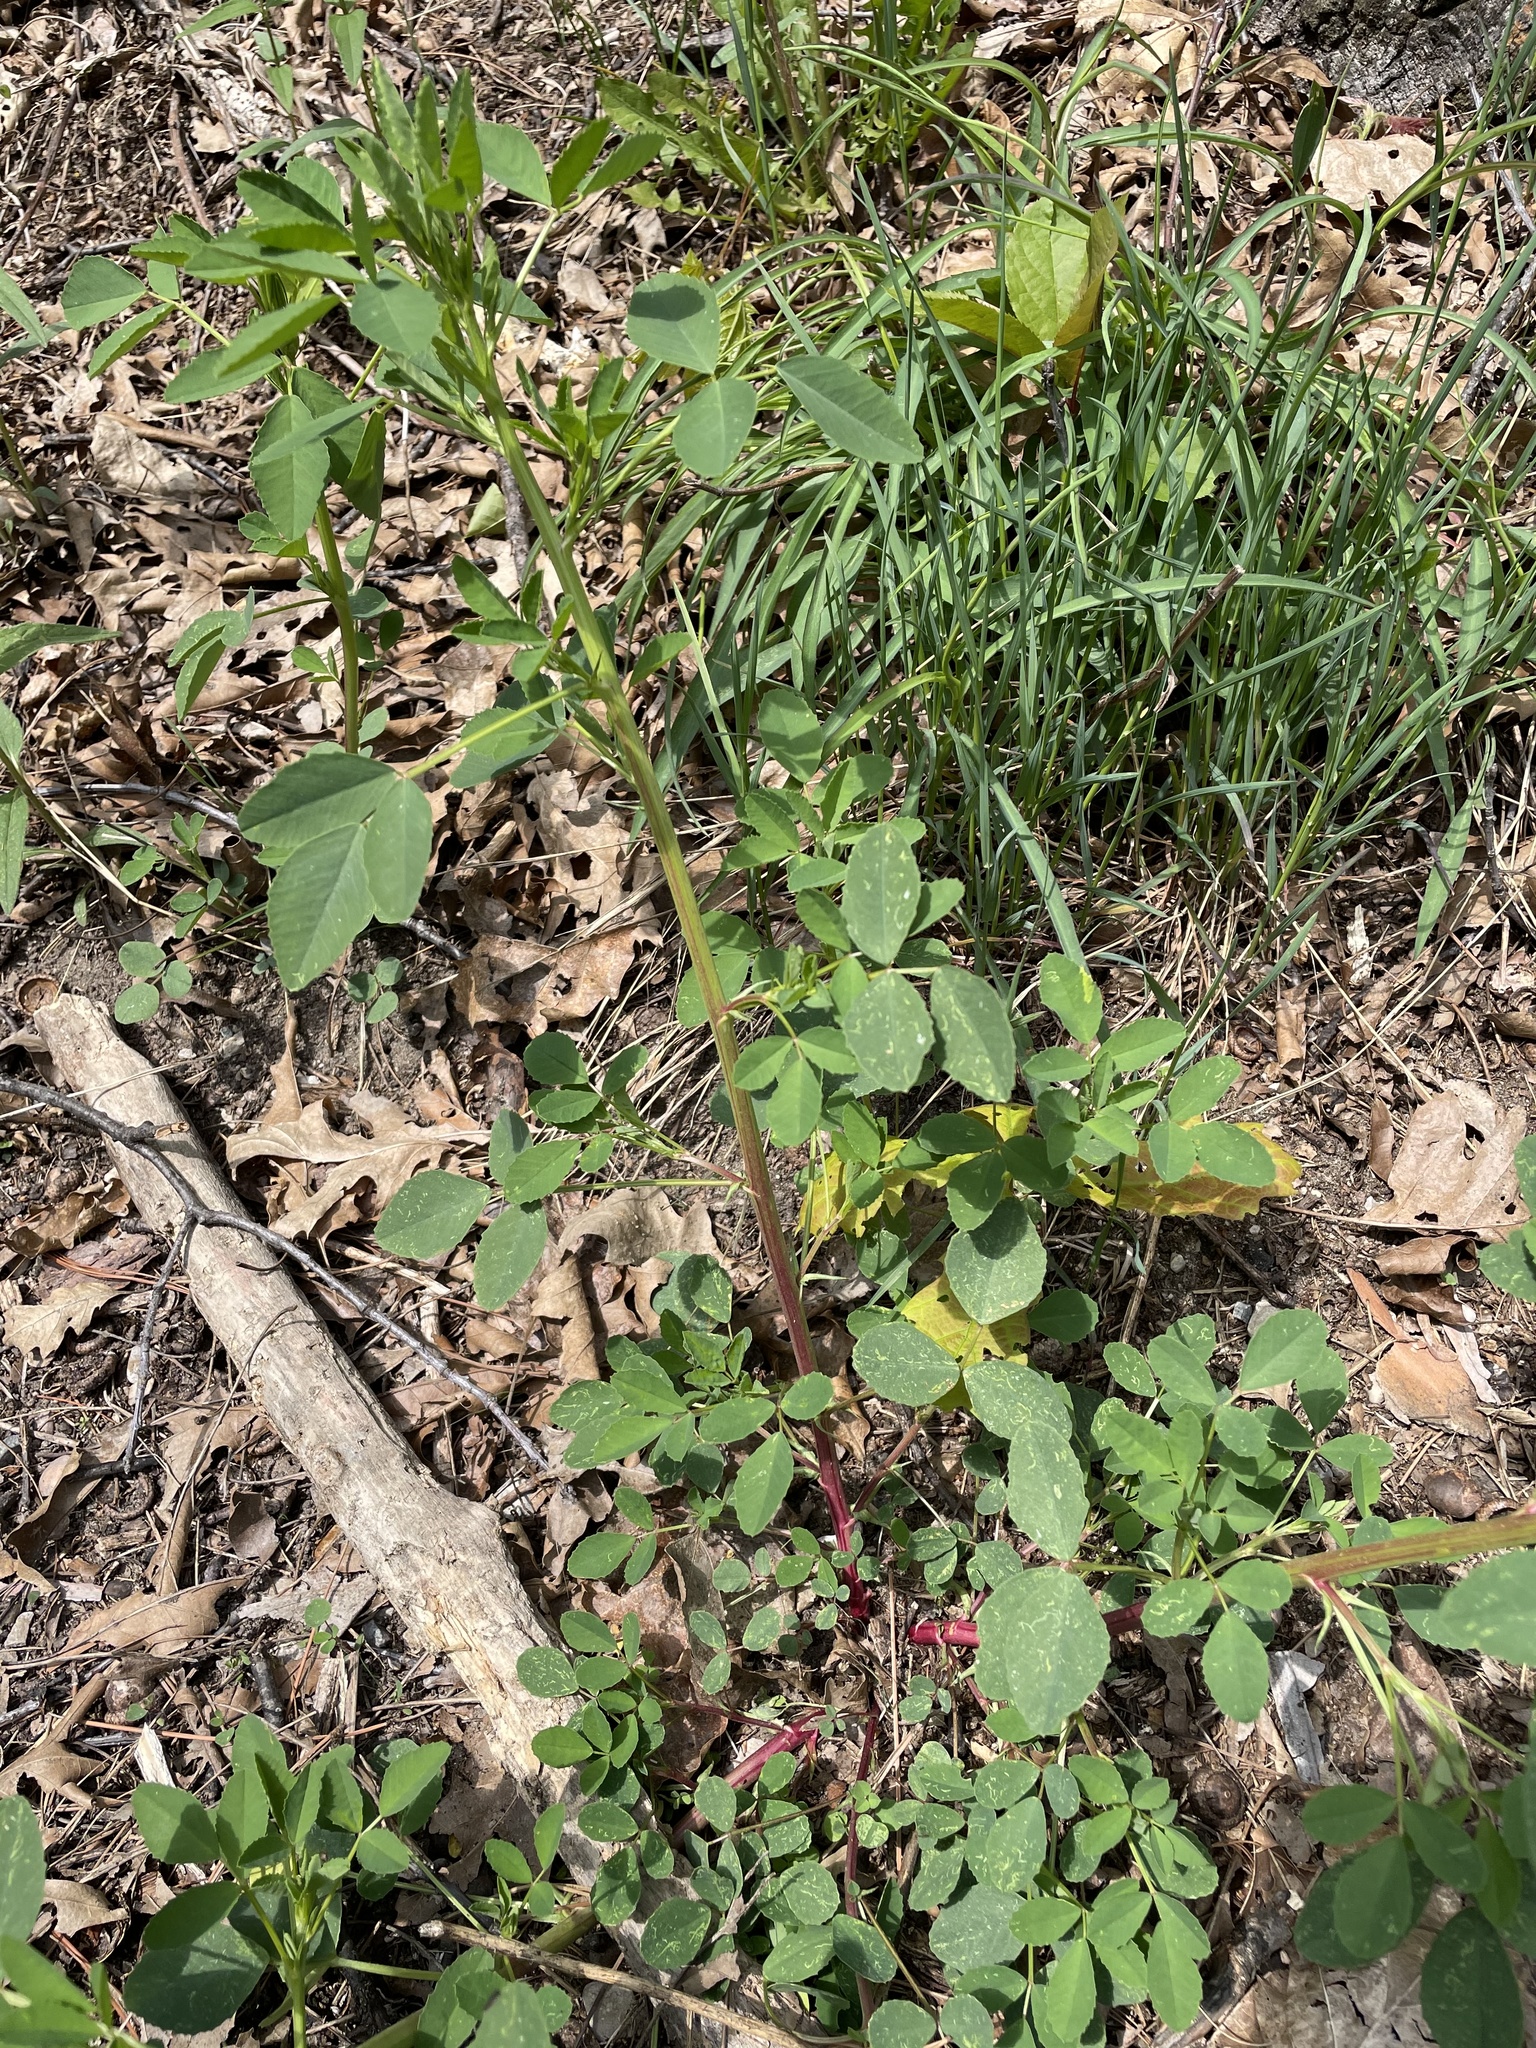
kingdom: Plantae
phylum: Tracheophyta
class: Magnoliopsida
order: Fabales
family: Fabaceae
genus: Melilotus
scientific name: Melilotus officinalis
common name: Sweetclover
